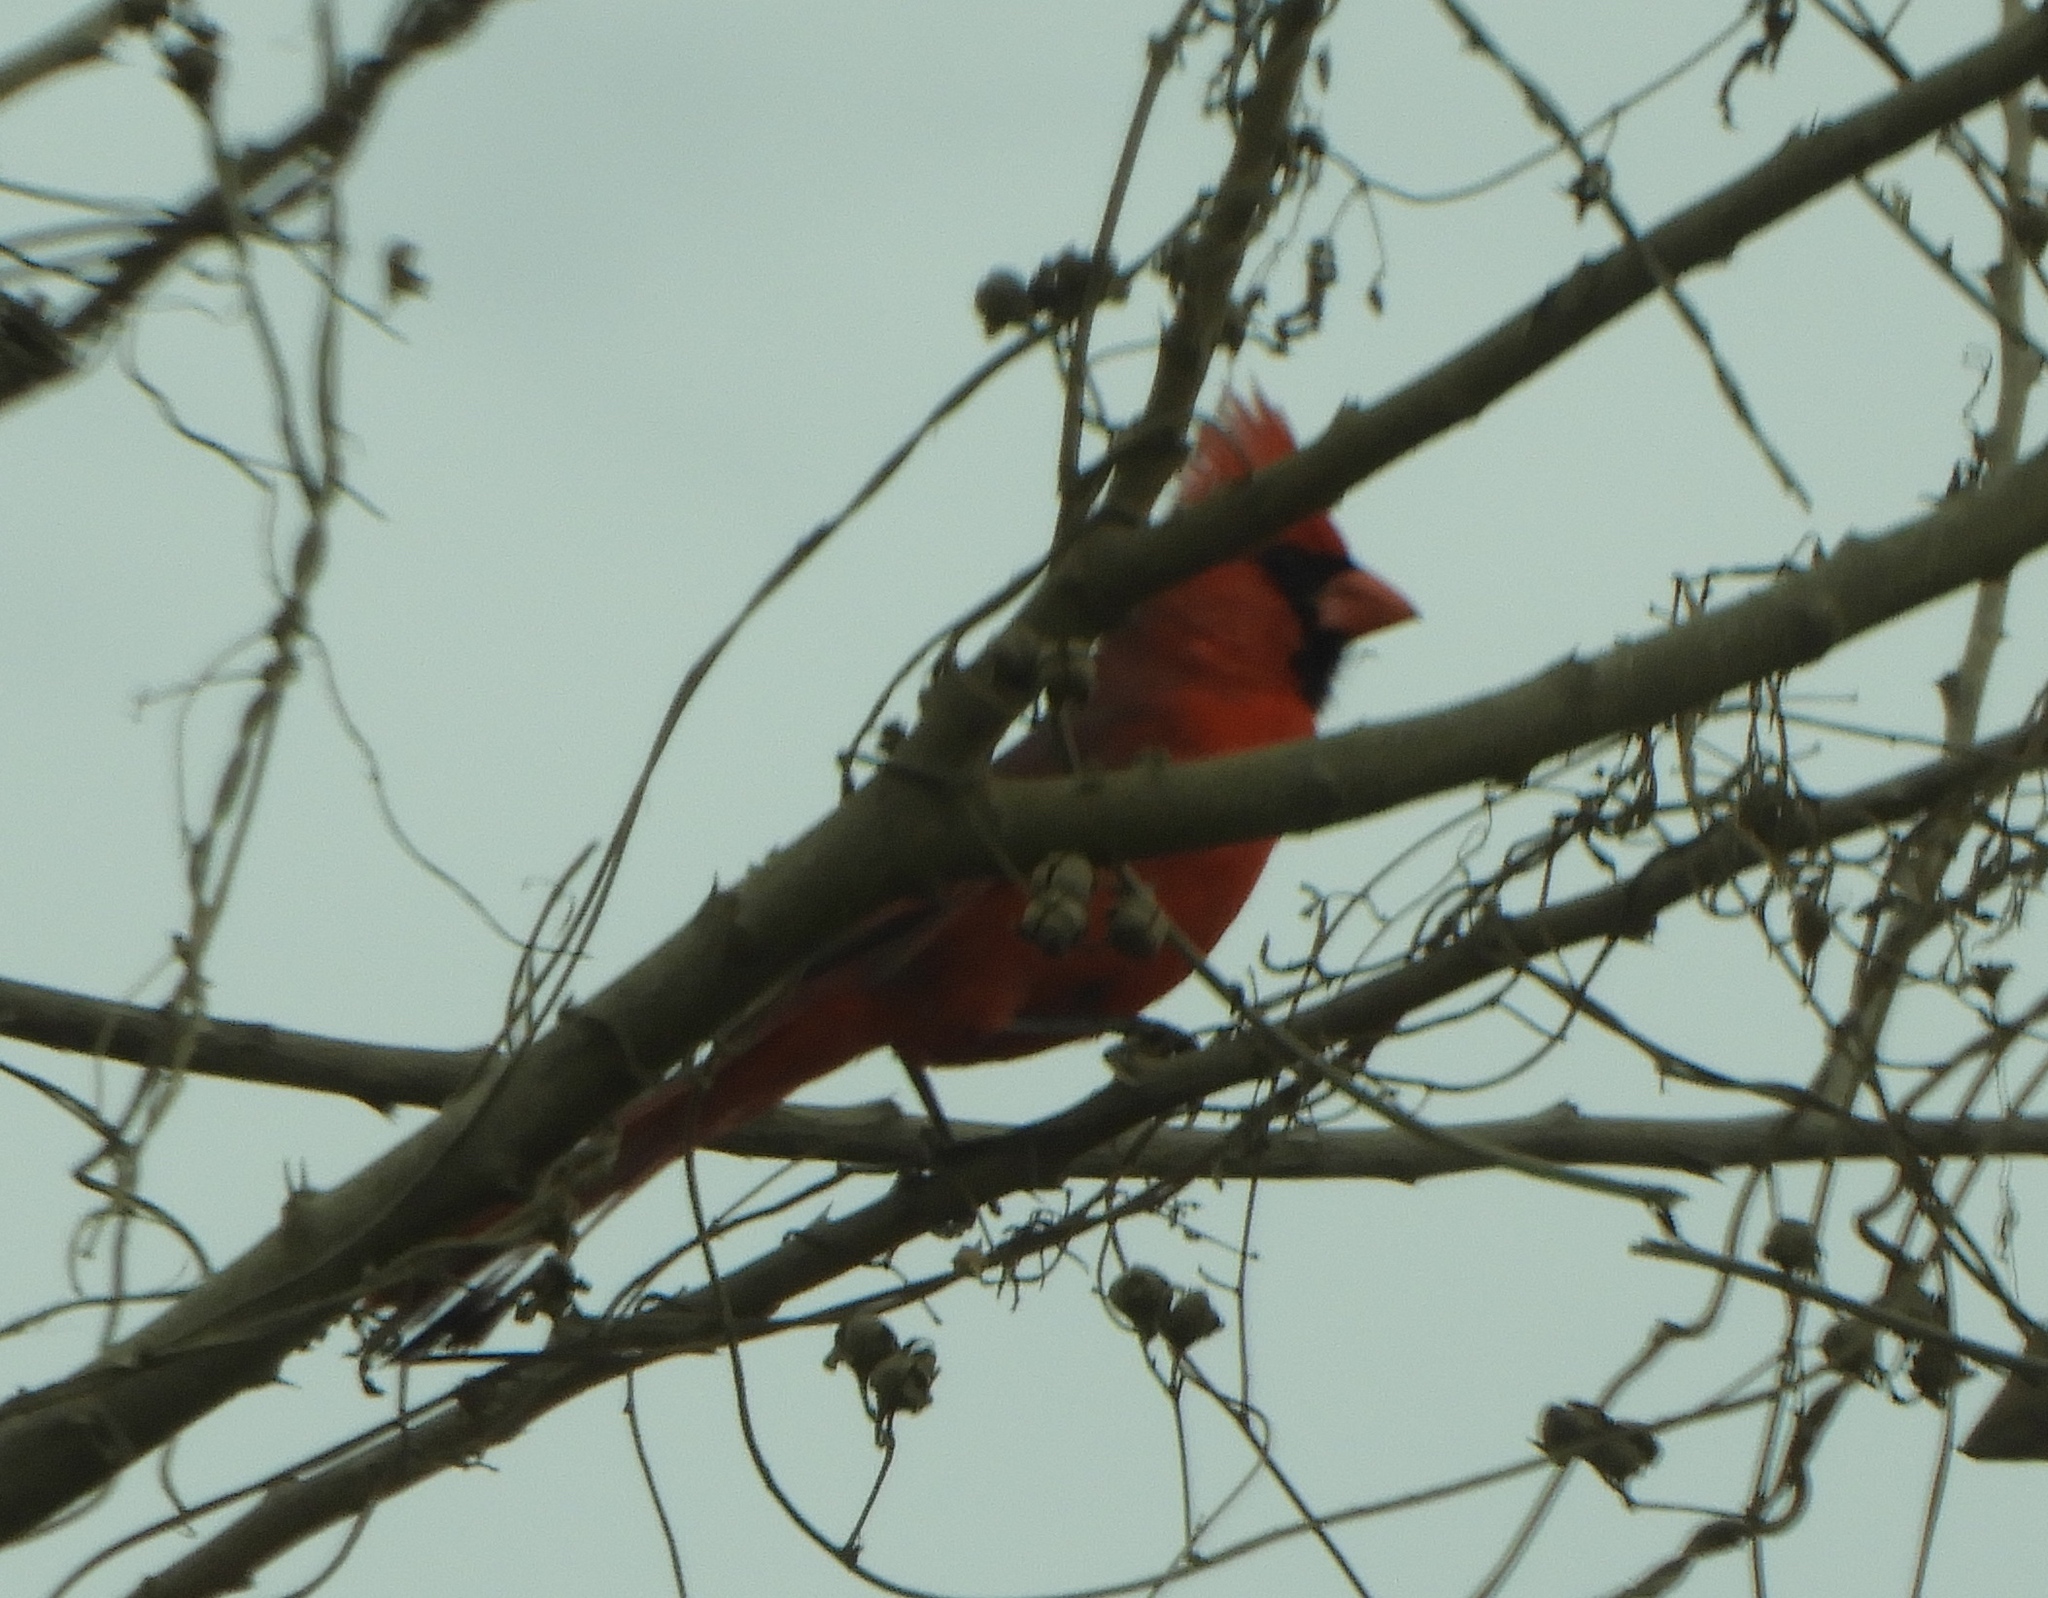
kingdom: Animalia
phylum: Chordata
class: Aves
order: Passeriformes
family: Cardinalidae
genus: Cardinalis
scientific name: Cardinalis cardinalis
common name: Northern cardinal
